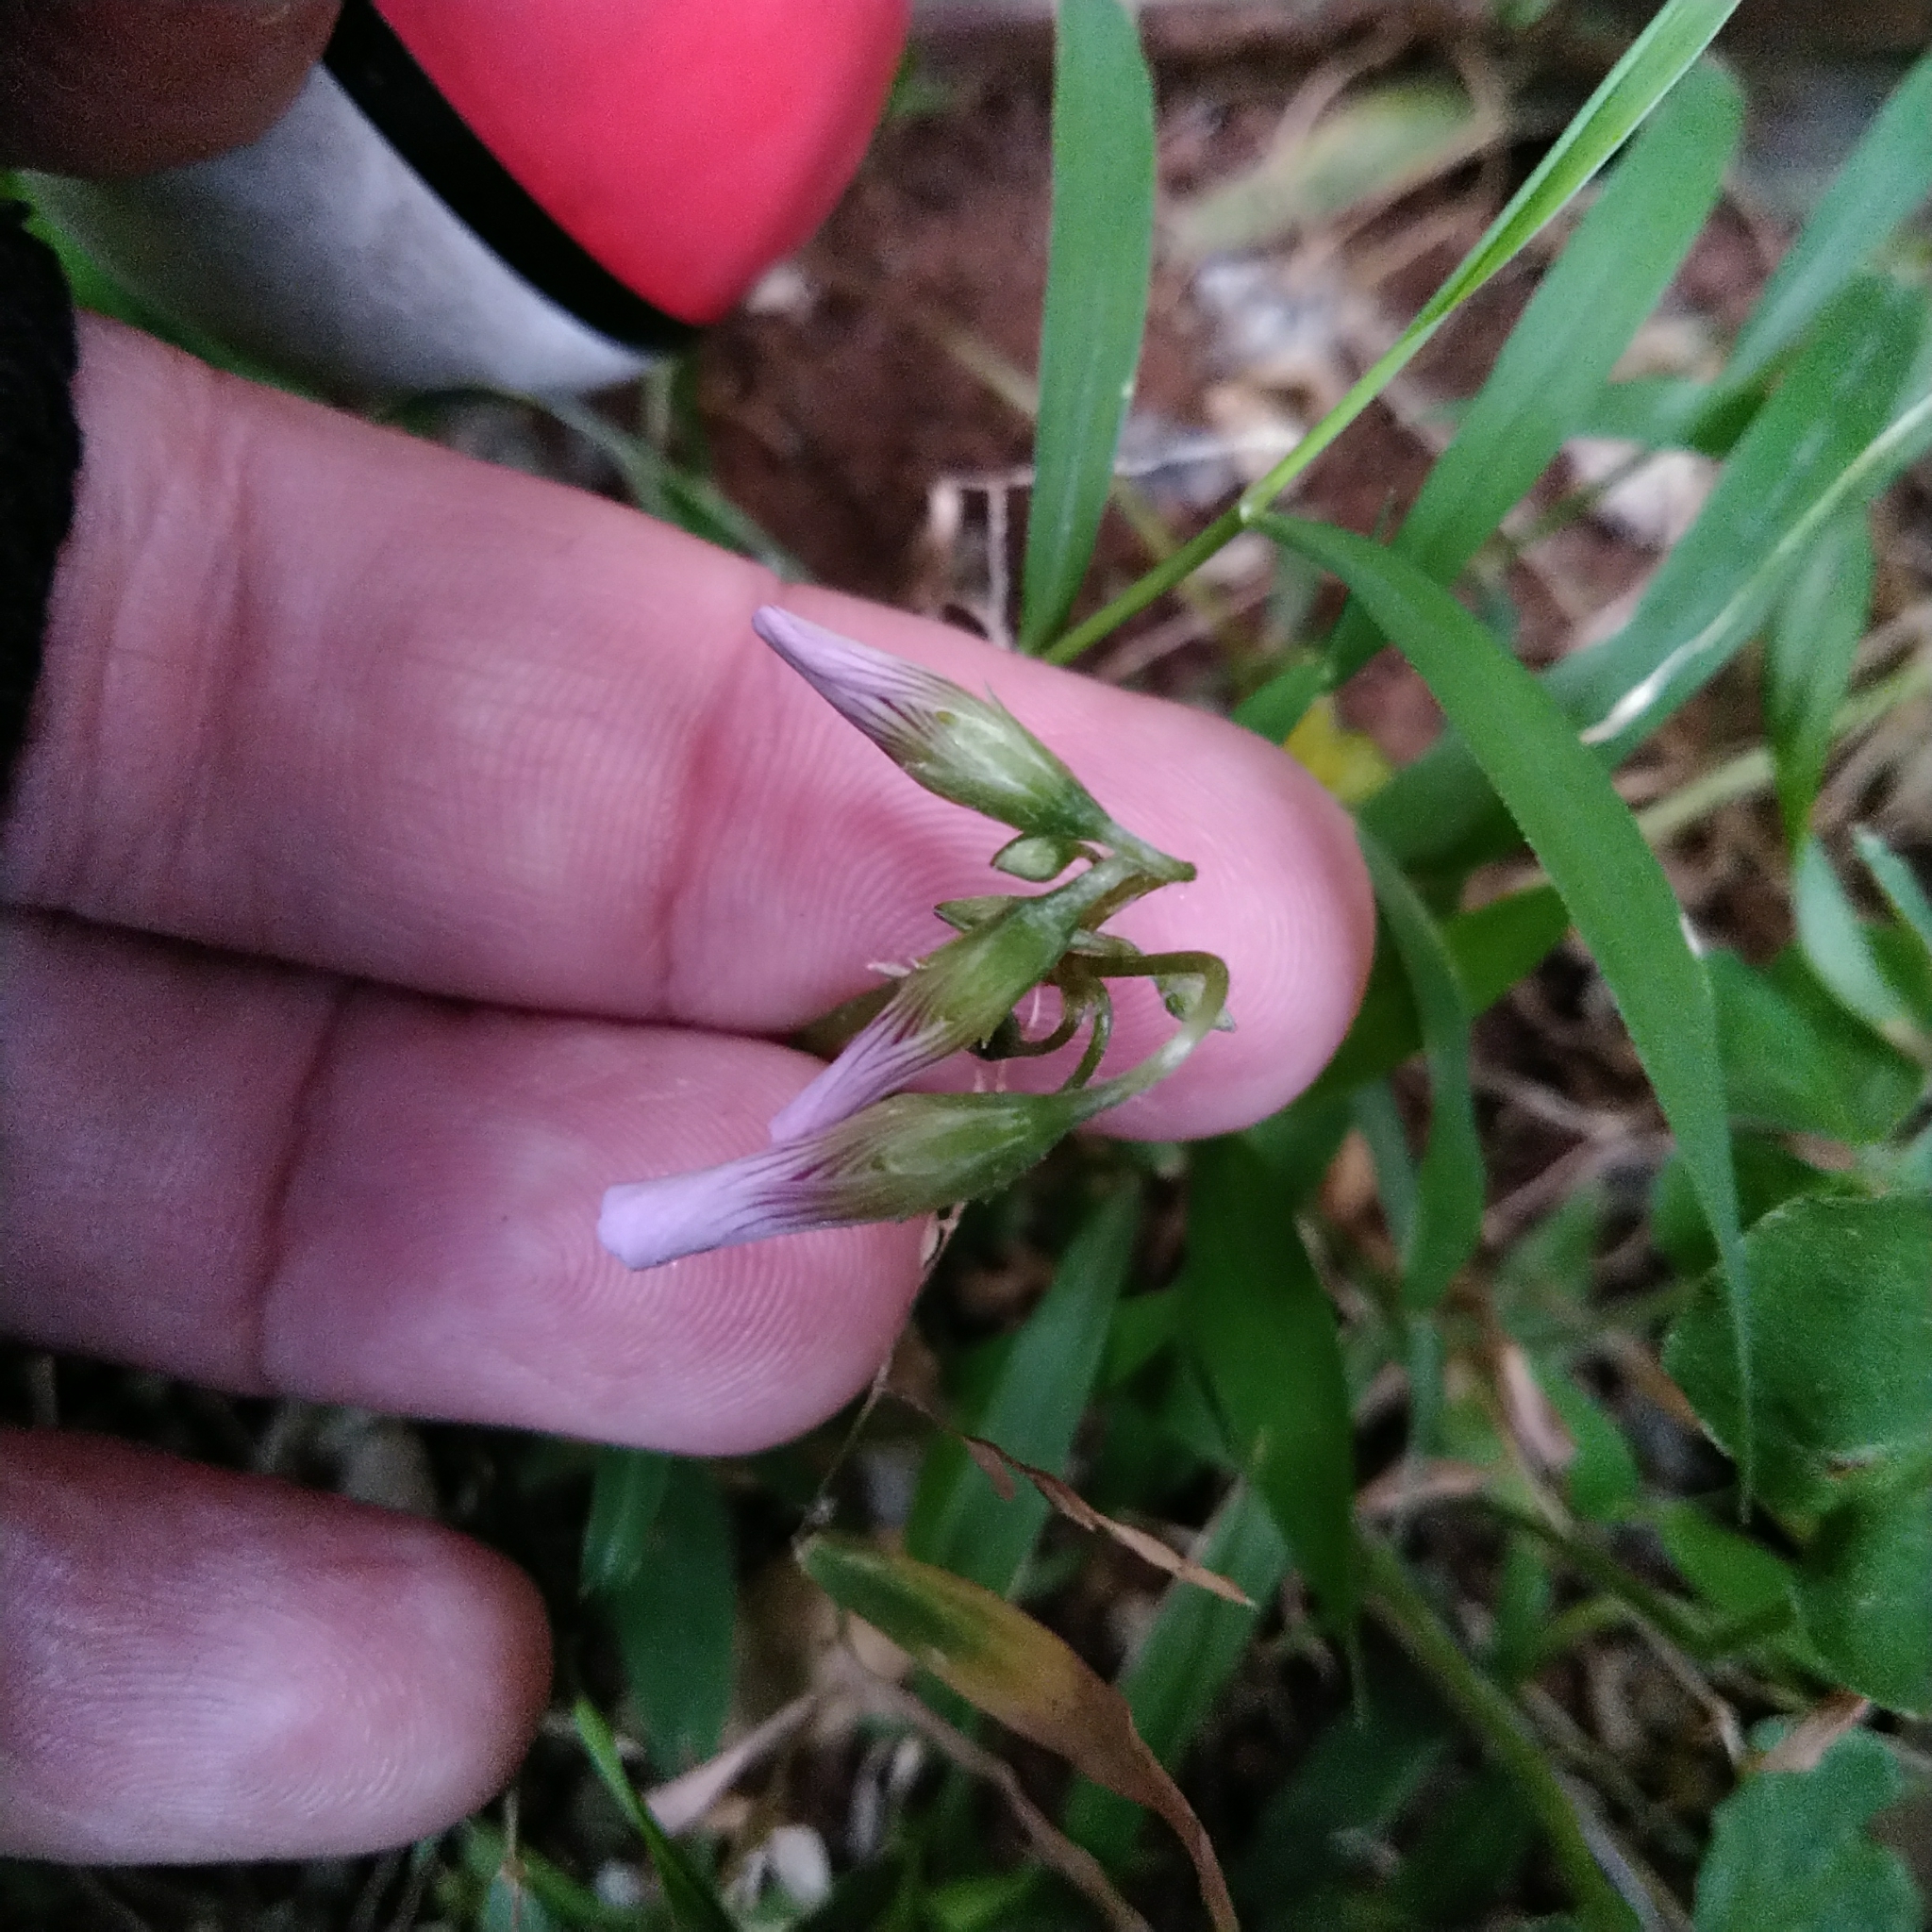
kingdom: Plantae
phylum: Tracheophyta
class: Magnoliopsida
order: Oxalidales
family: Oxalidaceae
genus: Oxalis
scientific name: Oxalis debilis
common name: Large-flowered pink-sorrel
